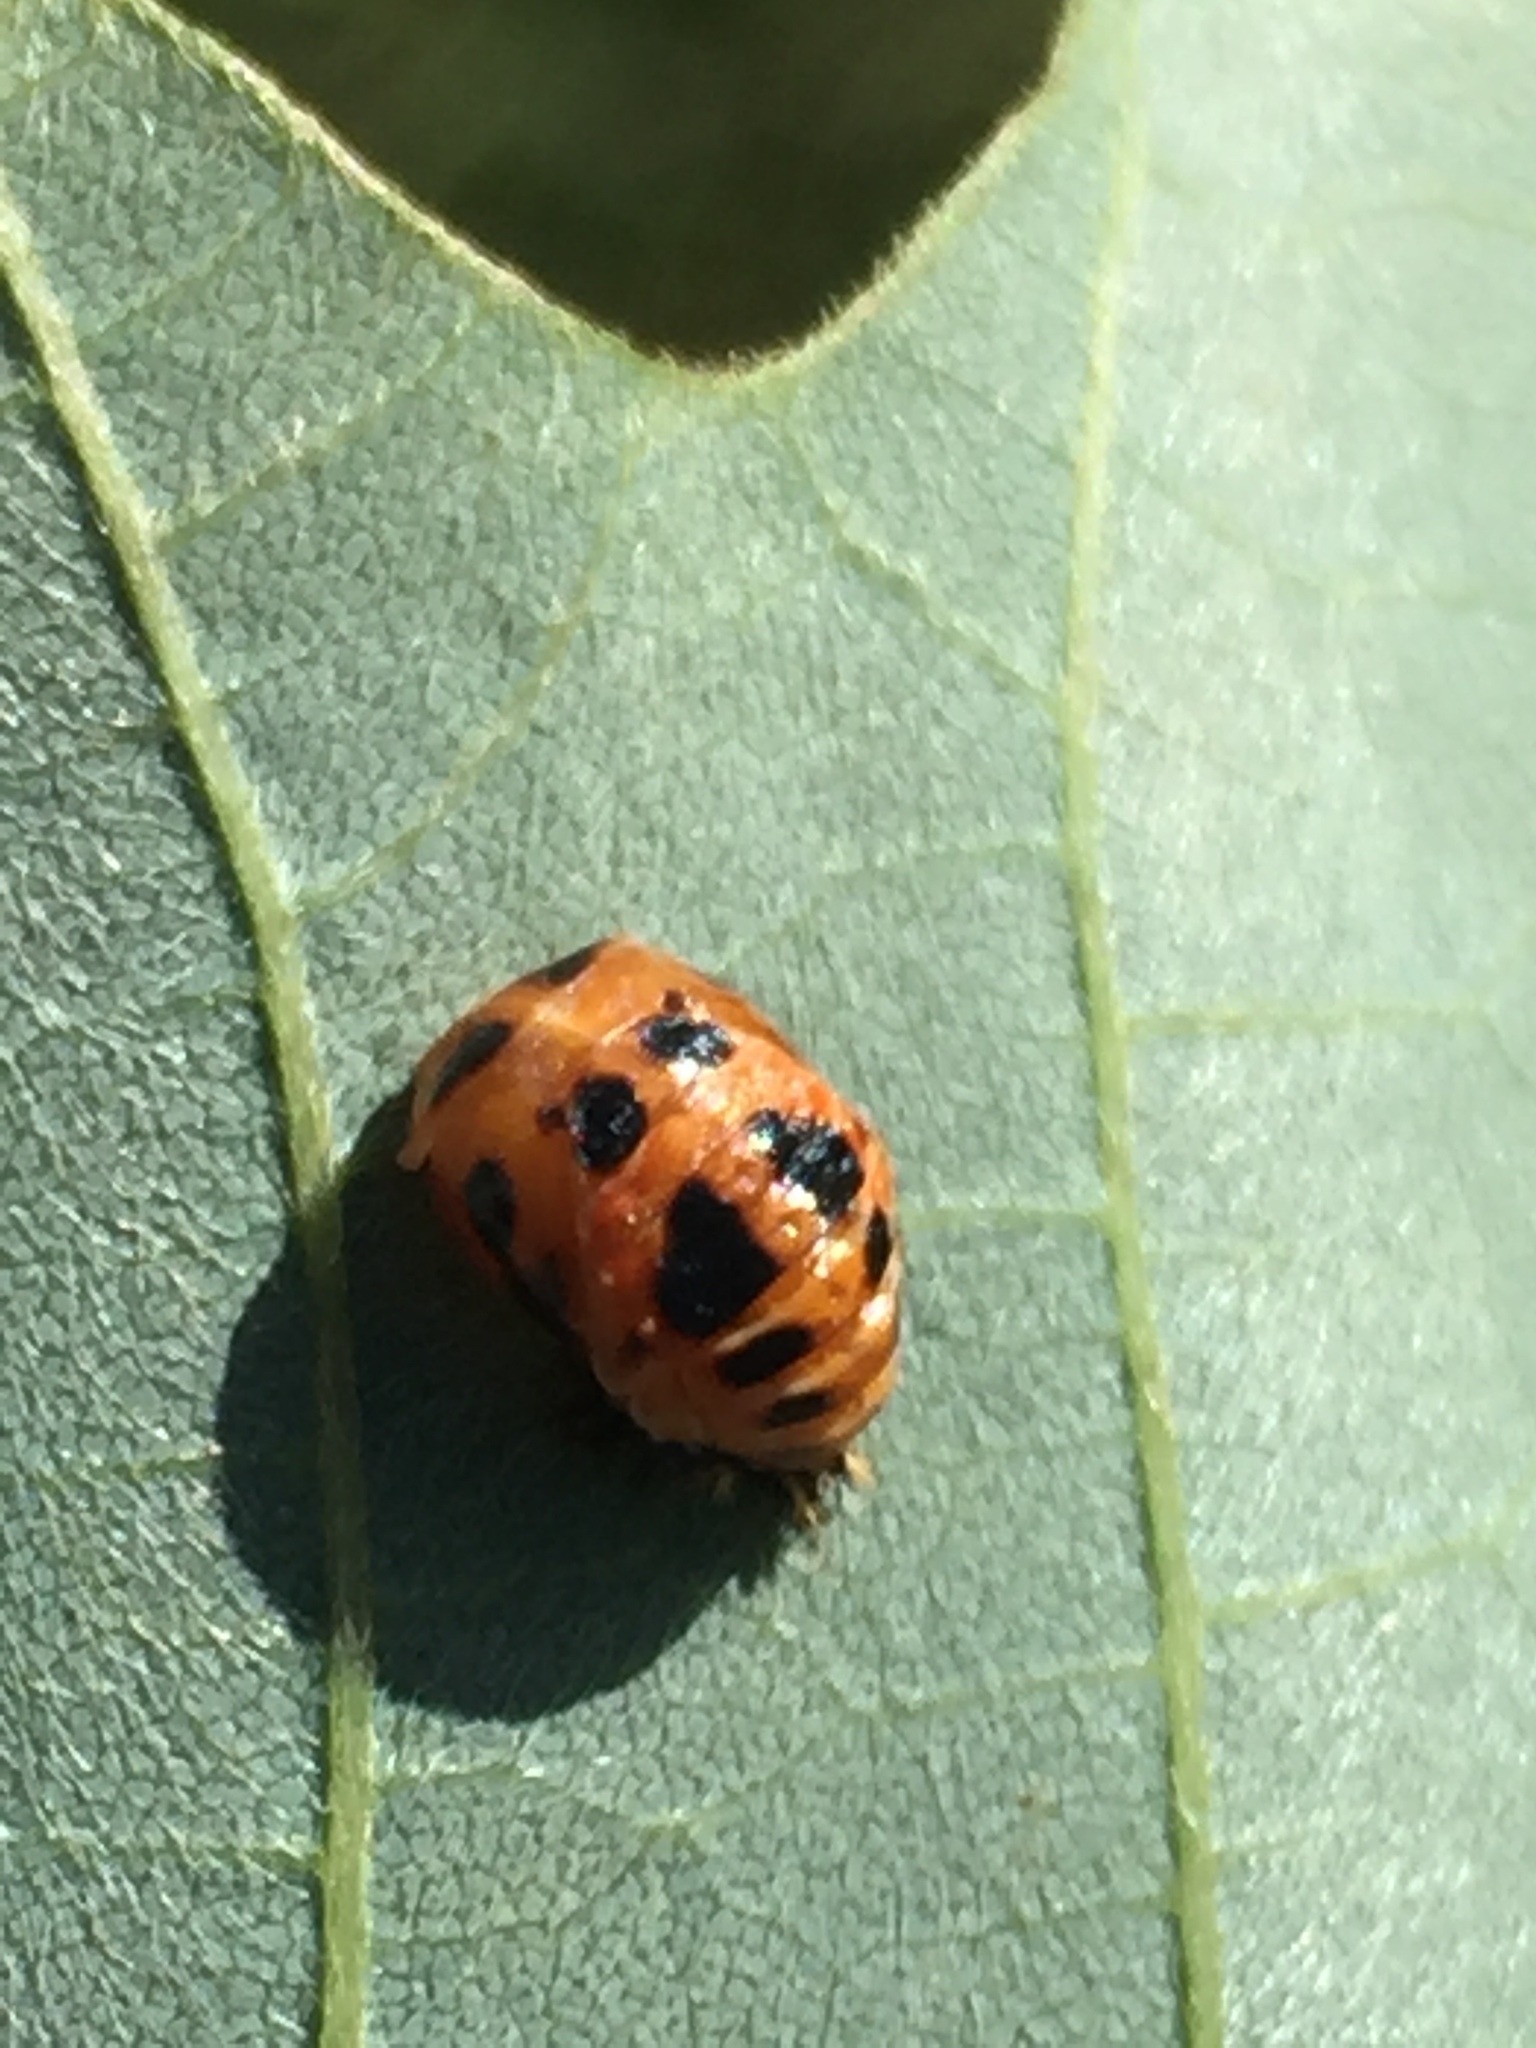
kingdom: Animalia
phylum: Arthropoda
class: Insecta
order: Coleoptera
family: Coccinellidae
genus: Harmonia
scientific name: Harmonia axyridis
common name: Harlequin ladybird
